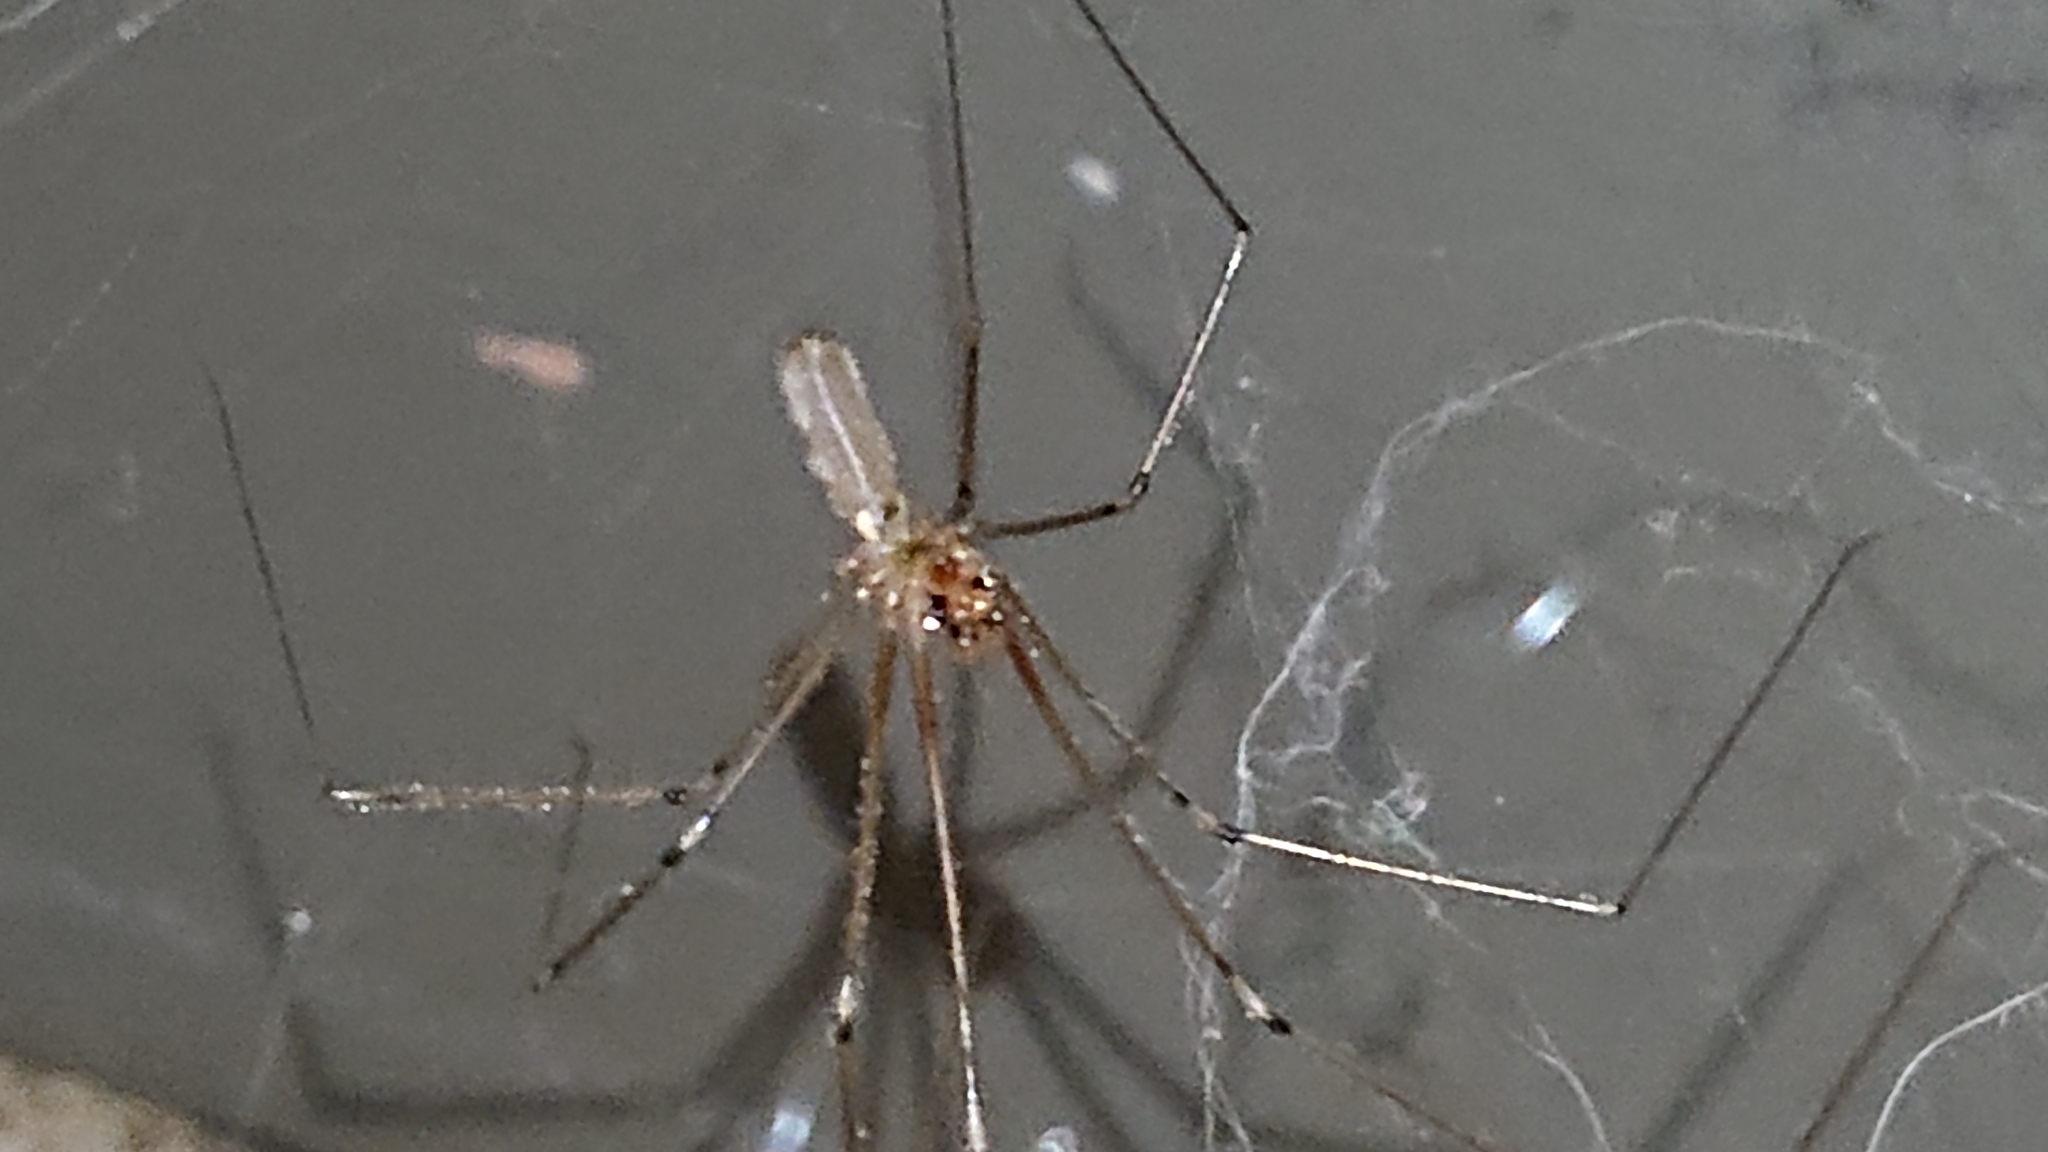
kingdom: Animalia
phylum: Arthropoda
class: Arachnida
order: Araneae
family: Pholcidae
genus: Pholcus
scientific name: Pholcus phalangioides
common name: Longbodied cellar spider
